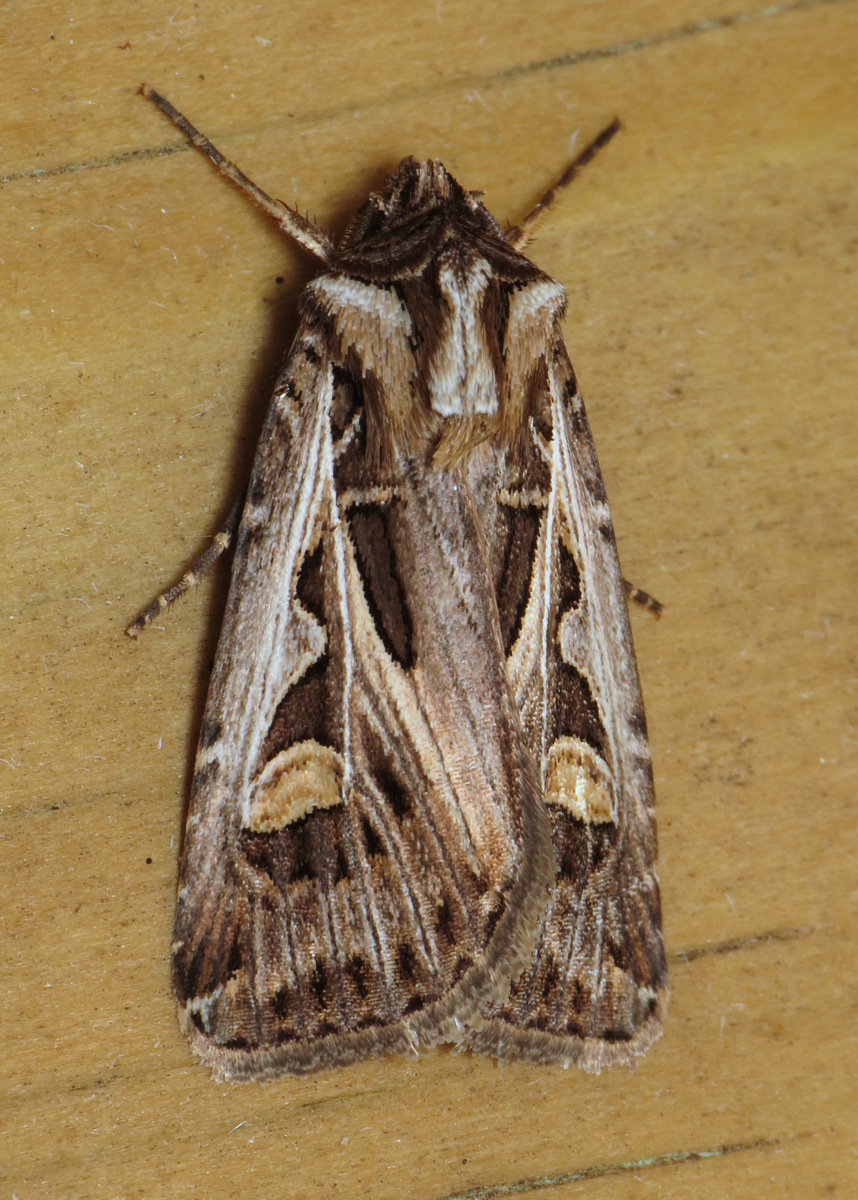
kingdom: Animalia
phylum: Arthropoda
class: Insecta
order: Lepidoptera
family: Noctuidae
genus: Feltia
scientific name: Feltia jaculifera
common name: Dingy cutworm moth
